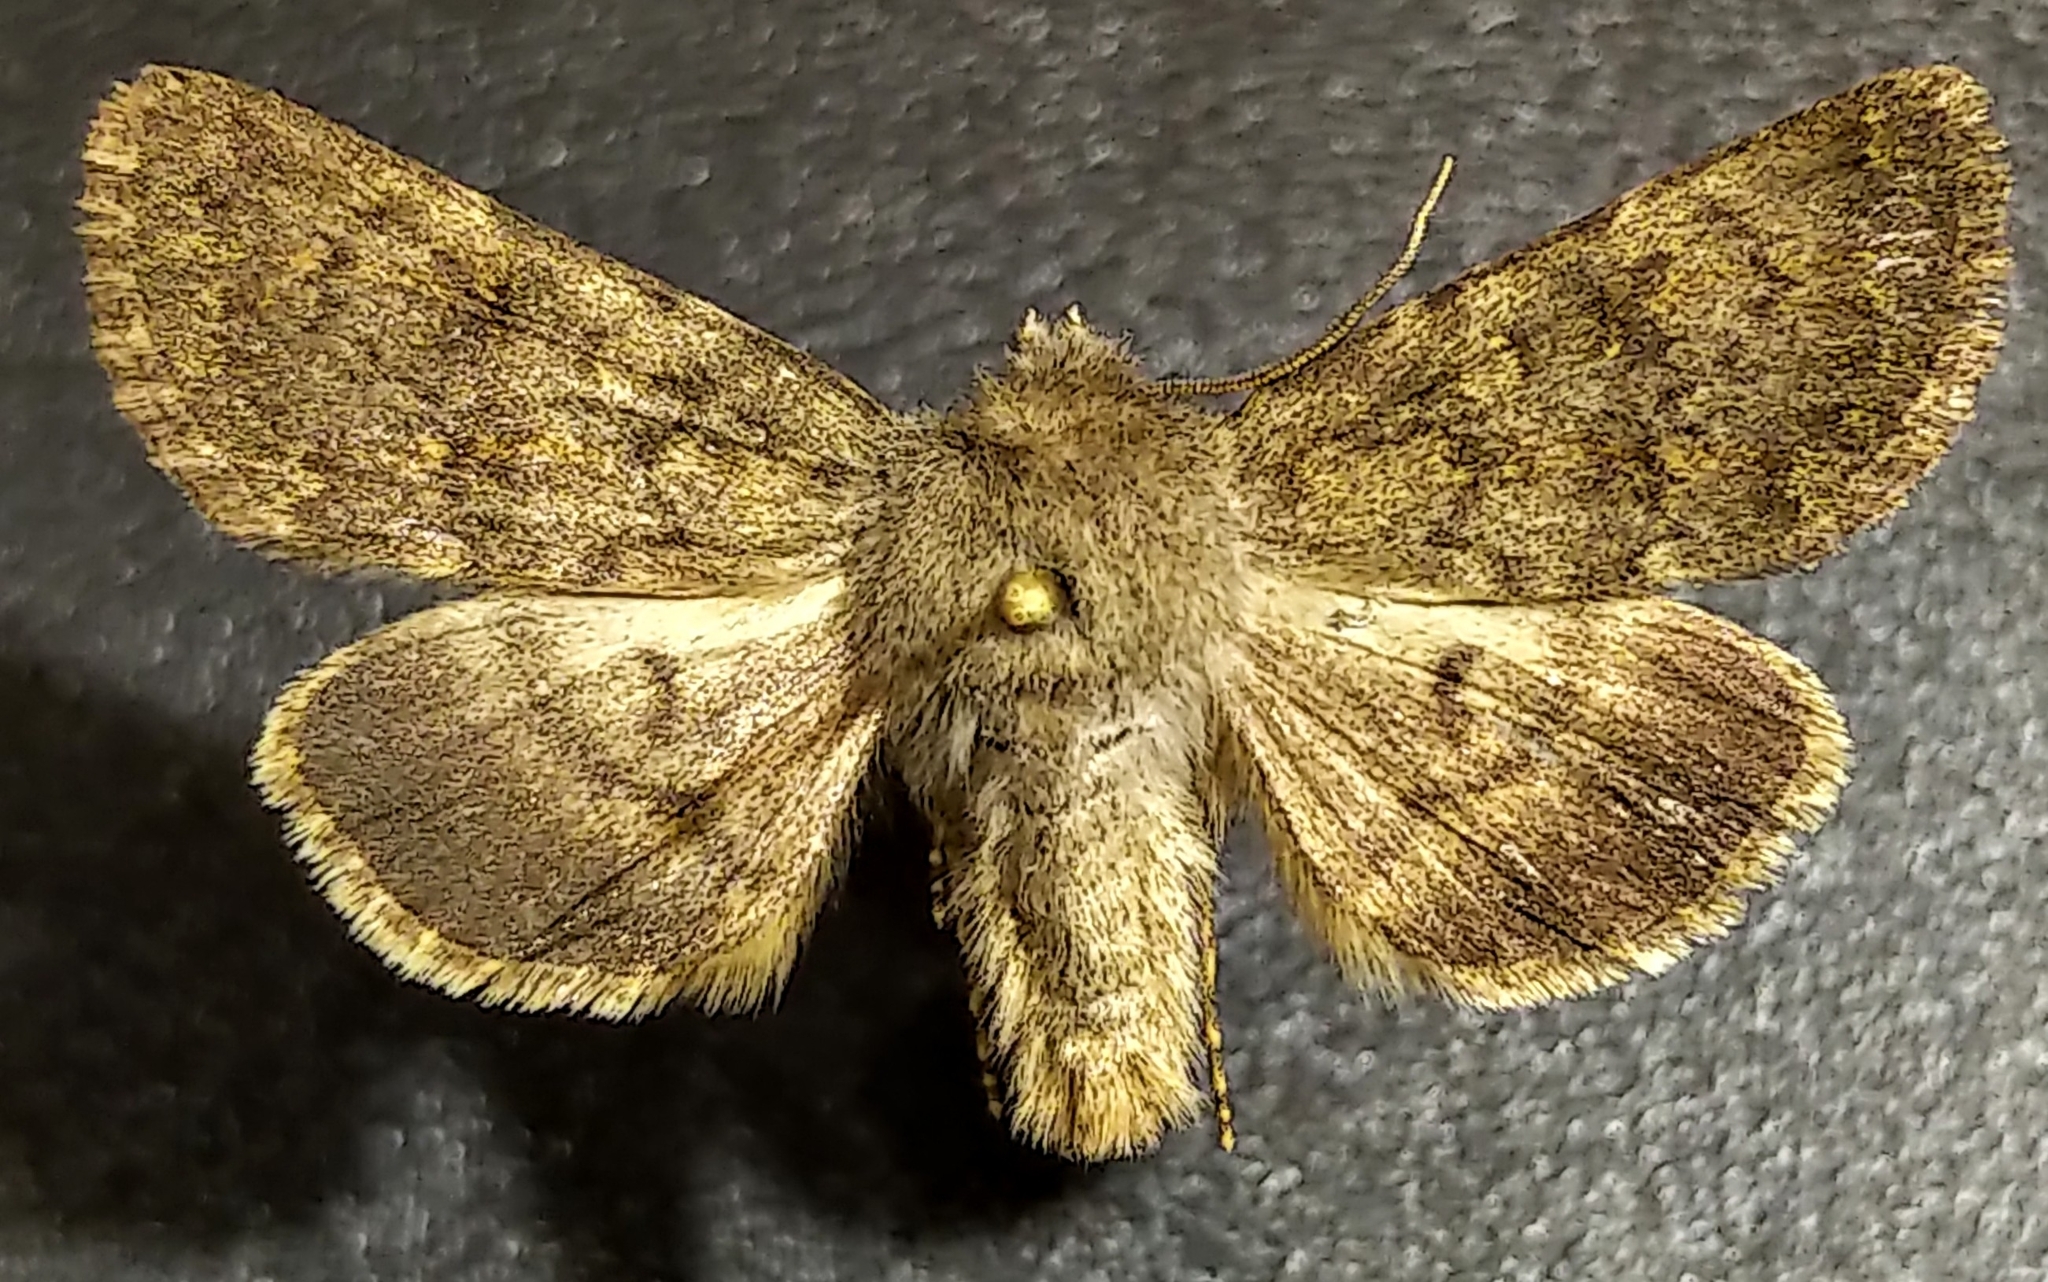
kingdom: Animalia
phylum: Arthropoda
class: Insecta
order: Lepidoptera
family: Noctuidae
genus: Lasionycta
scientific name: Lasionycta brunnea
